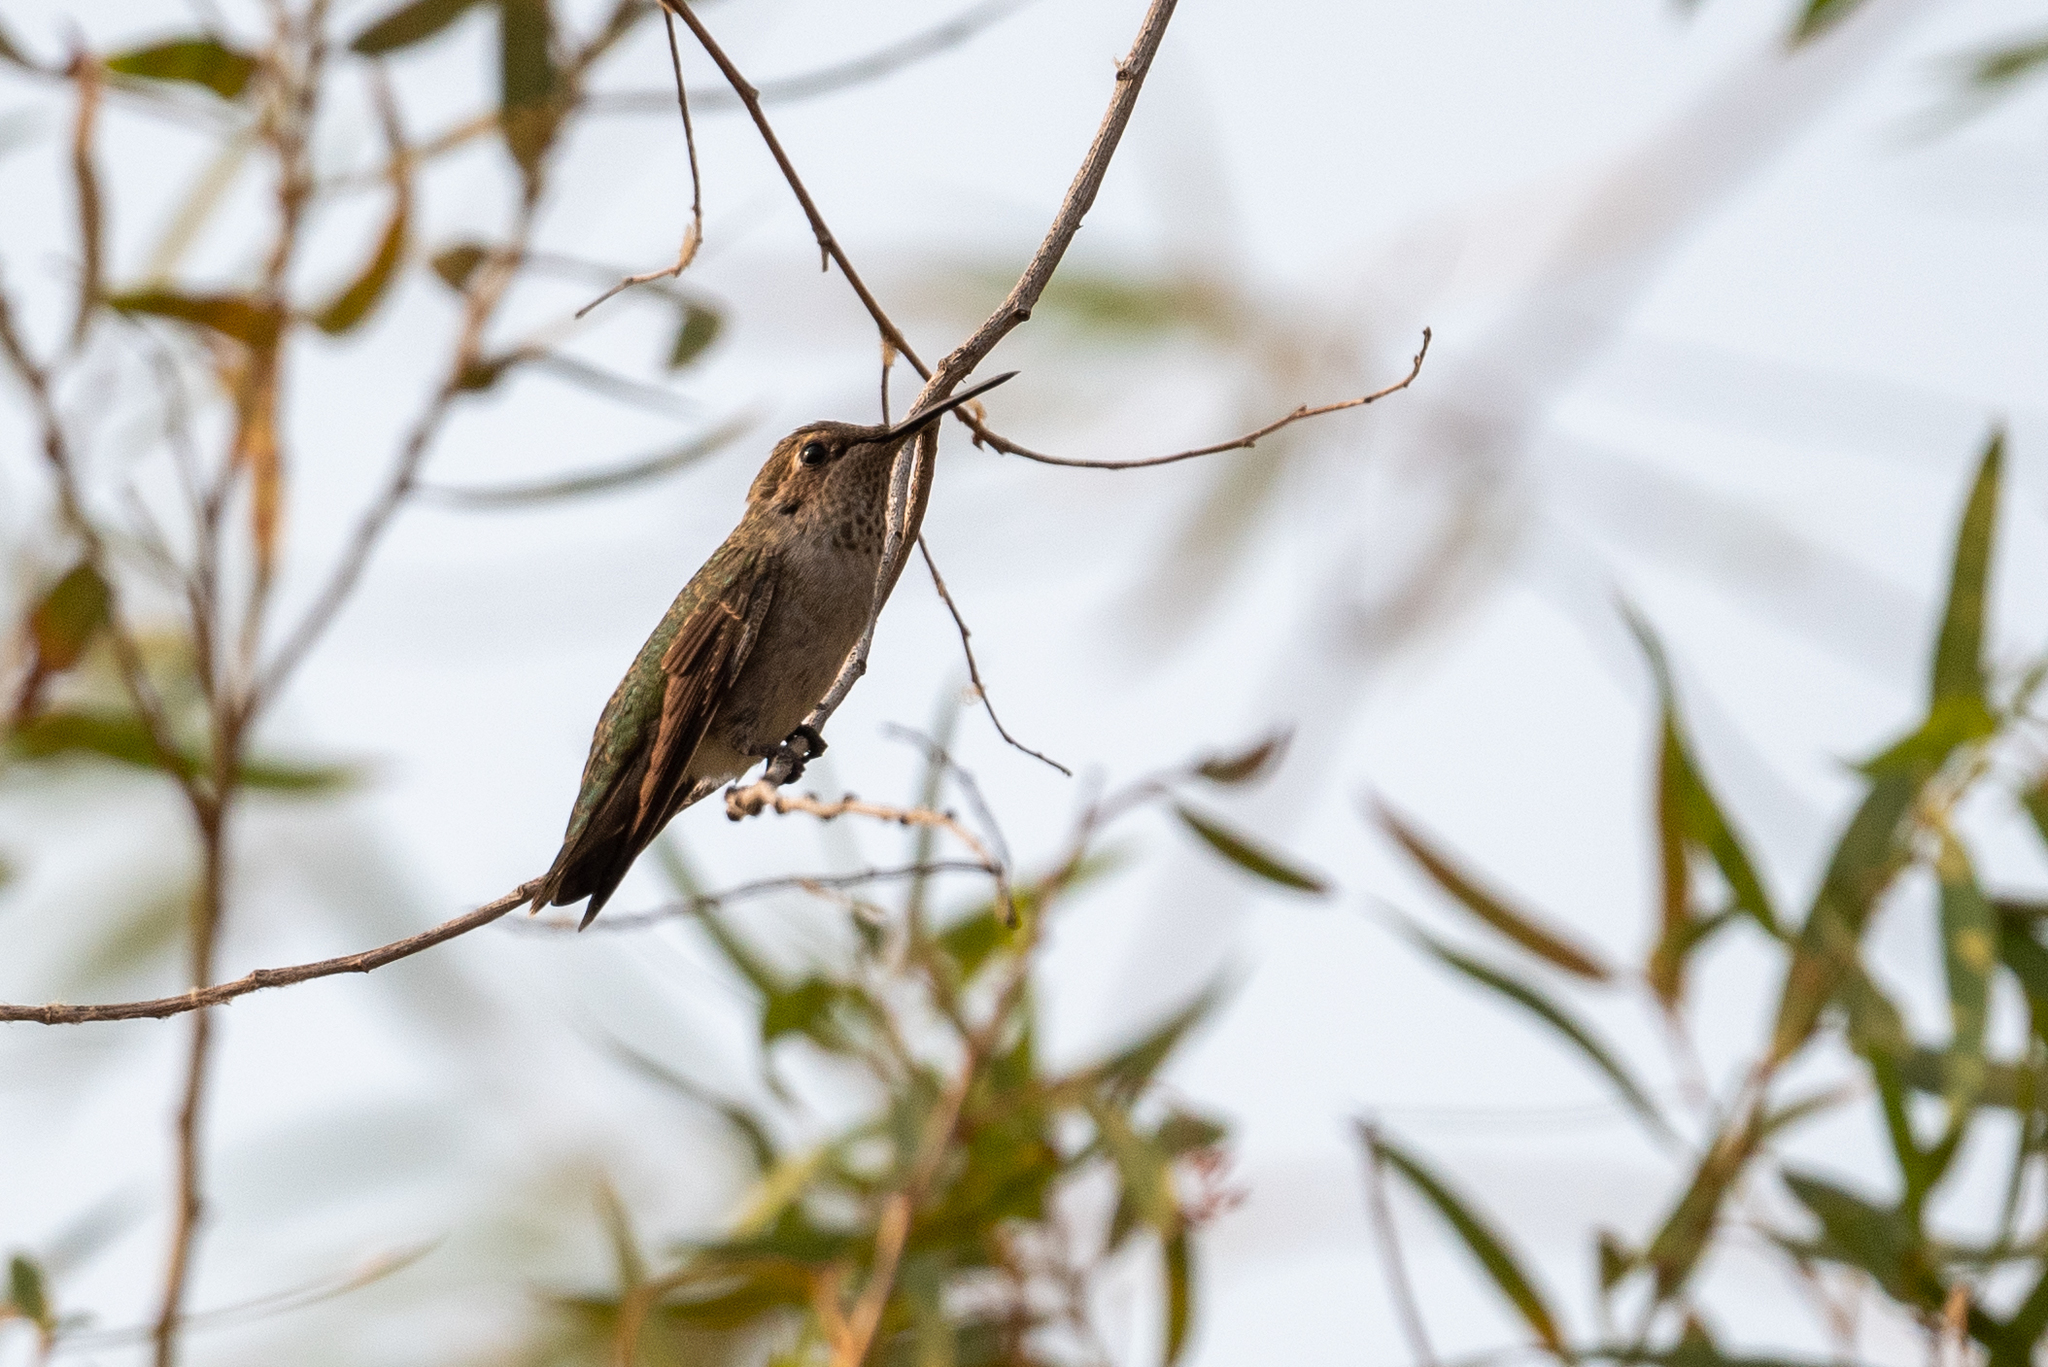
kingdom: Animalia
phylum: Chordata
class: Aves
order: Apodiformes
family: Trochilidae
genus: Archilochus
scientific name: Archilochus alexandri
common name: Black-chinned hummingbird
